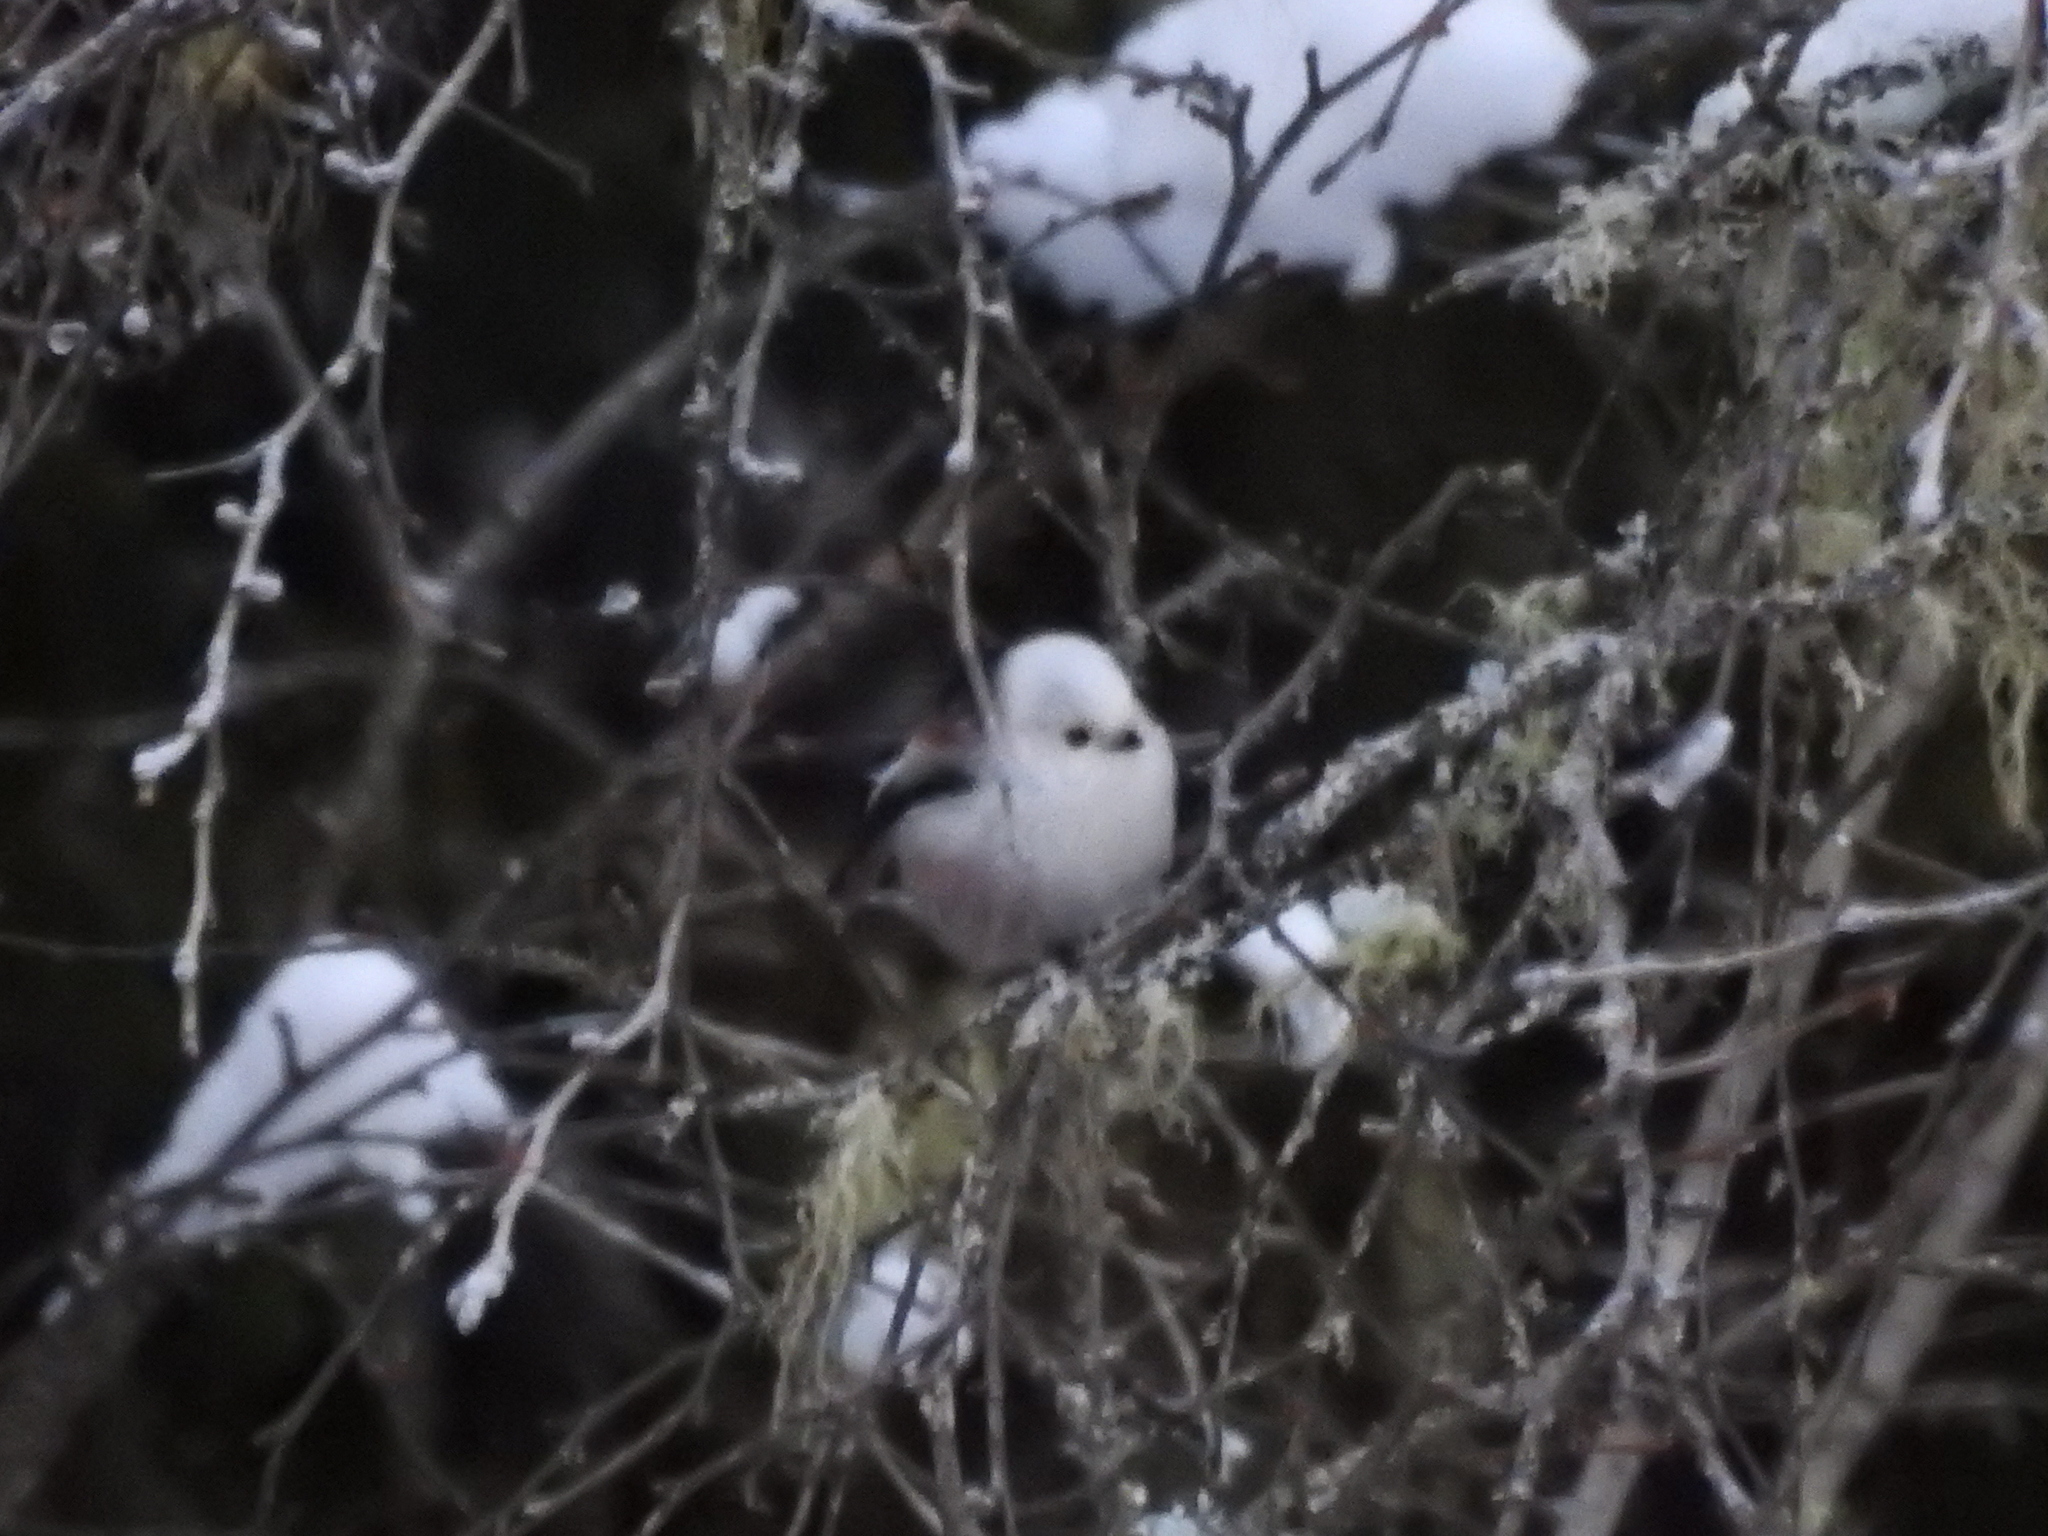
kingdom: Animalia
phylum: Chordata
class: Aves
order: Passeriformes
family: Aegithalidae
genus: Aegithalos
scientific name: Aegithalos caudatus
